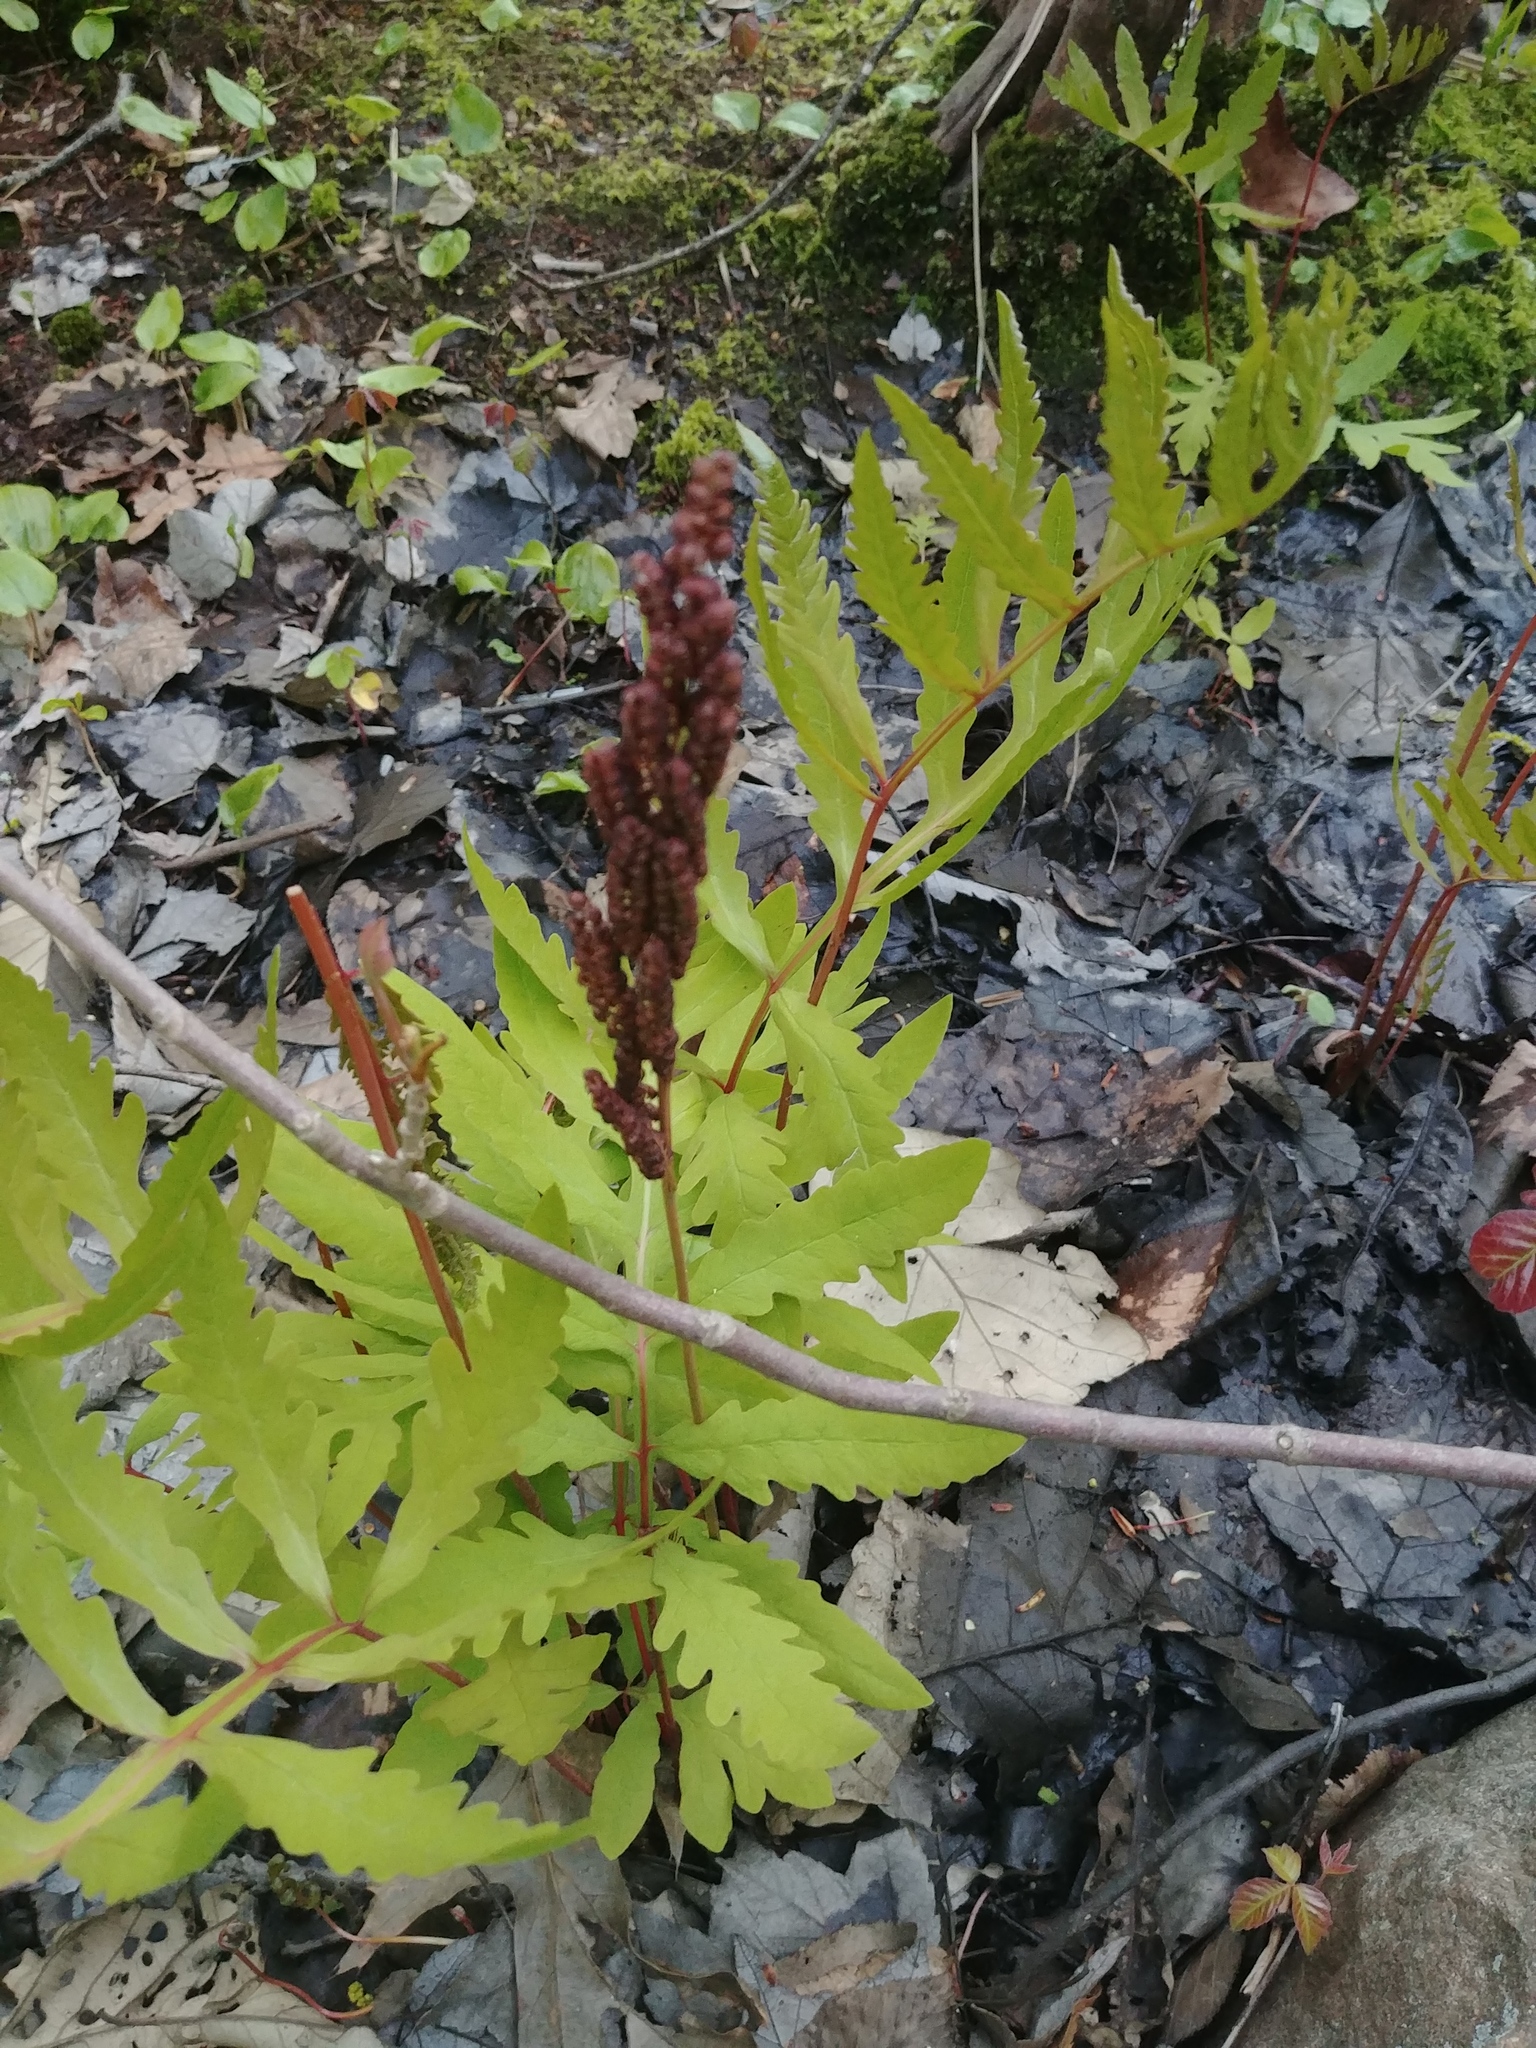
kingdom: Plantae
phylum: Tracheophyta
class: Polypodiopsida
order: Polypodiales
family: Onocleaceae
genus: Onoclea
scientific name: Onoclea sensibilis
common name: Sensitive fern
